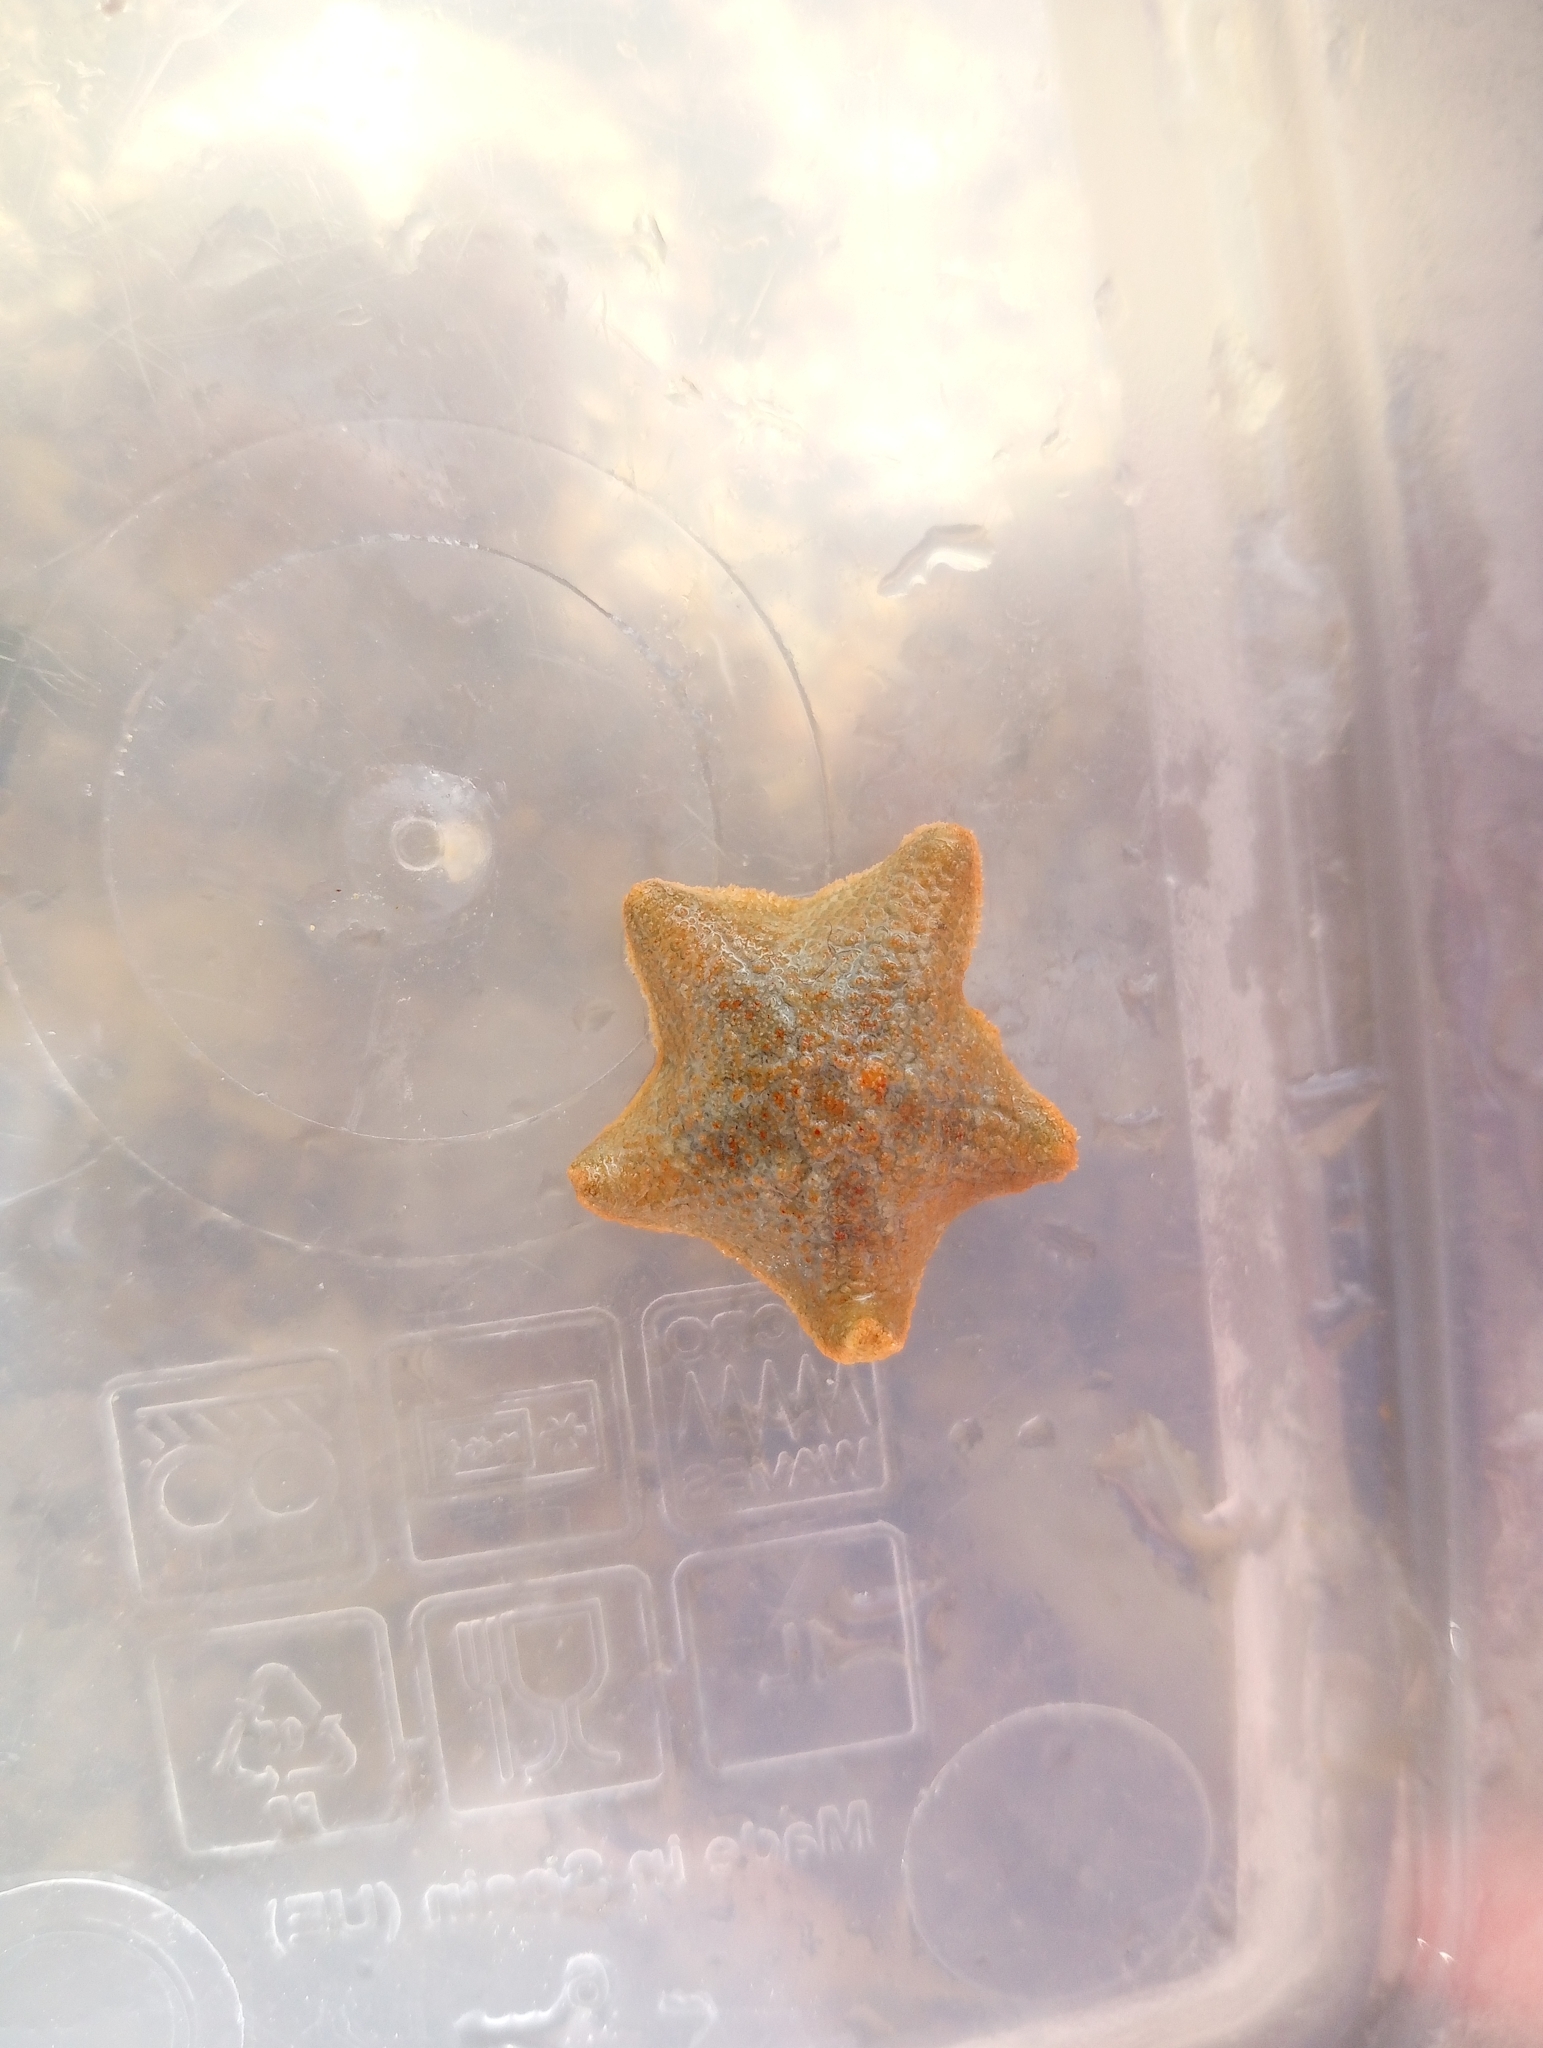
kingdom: Animalia
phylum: Echinodermata
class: Asteroidea
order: Valvatida
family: Asterinidae
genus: Asterina
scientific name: Asterina gibbosa
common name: Cushion star
